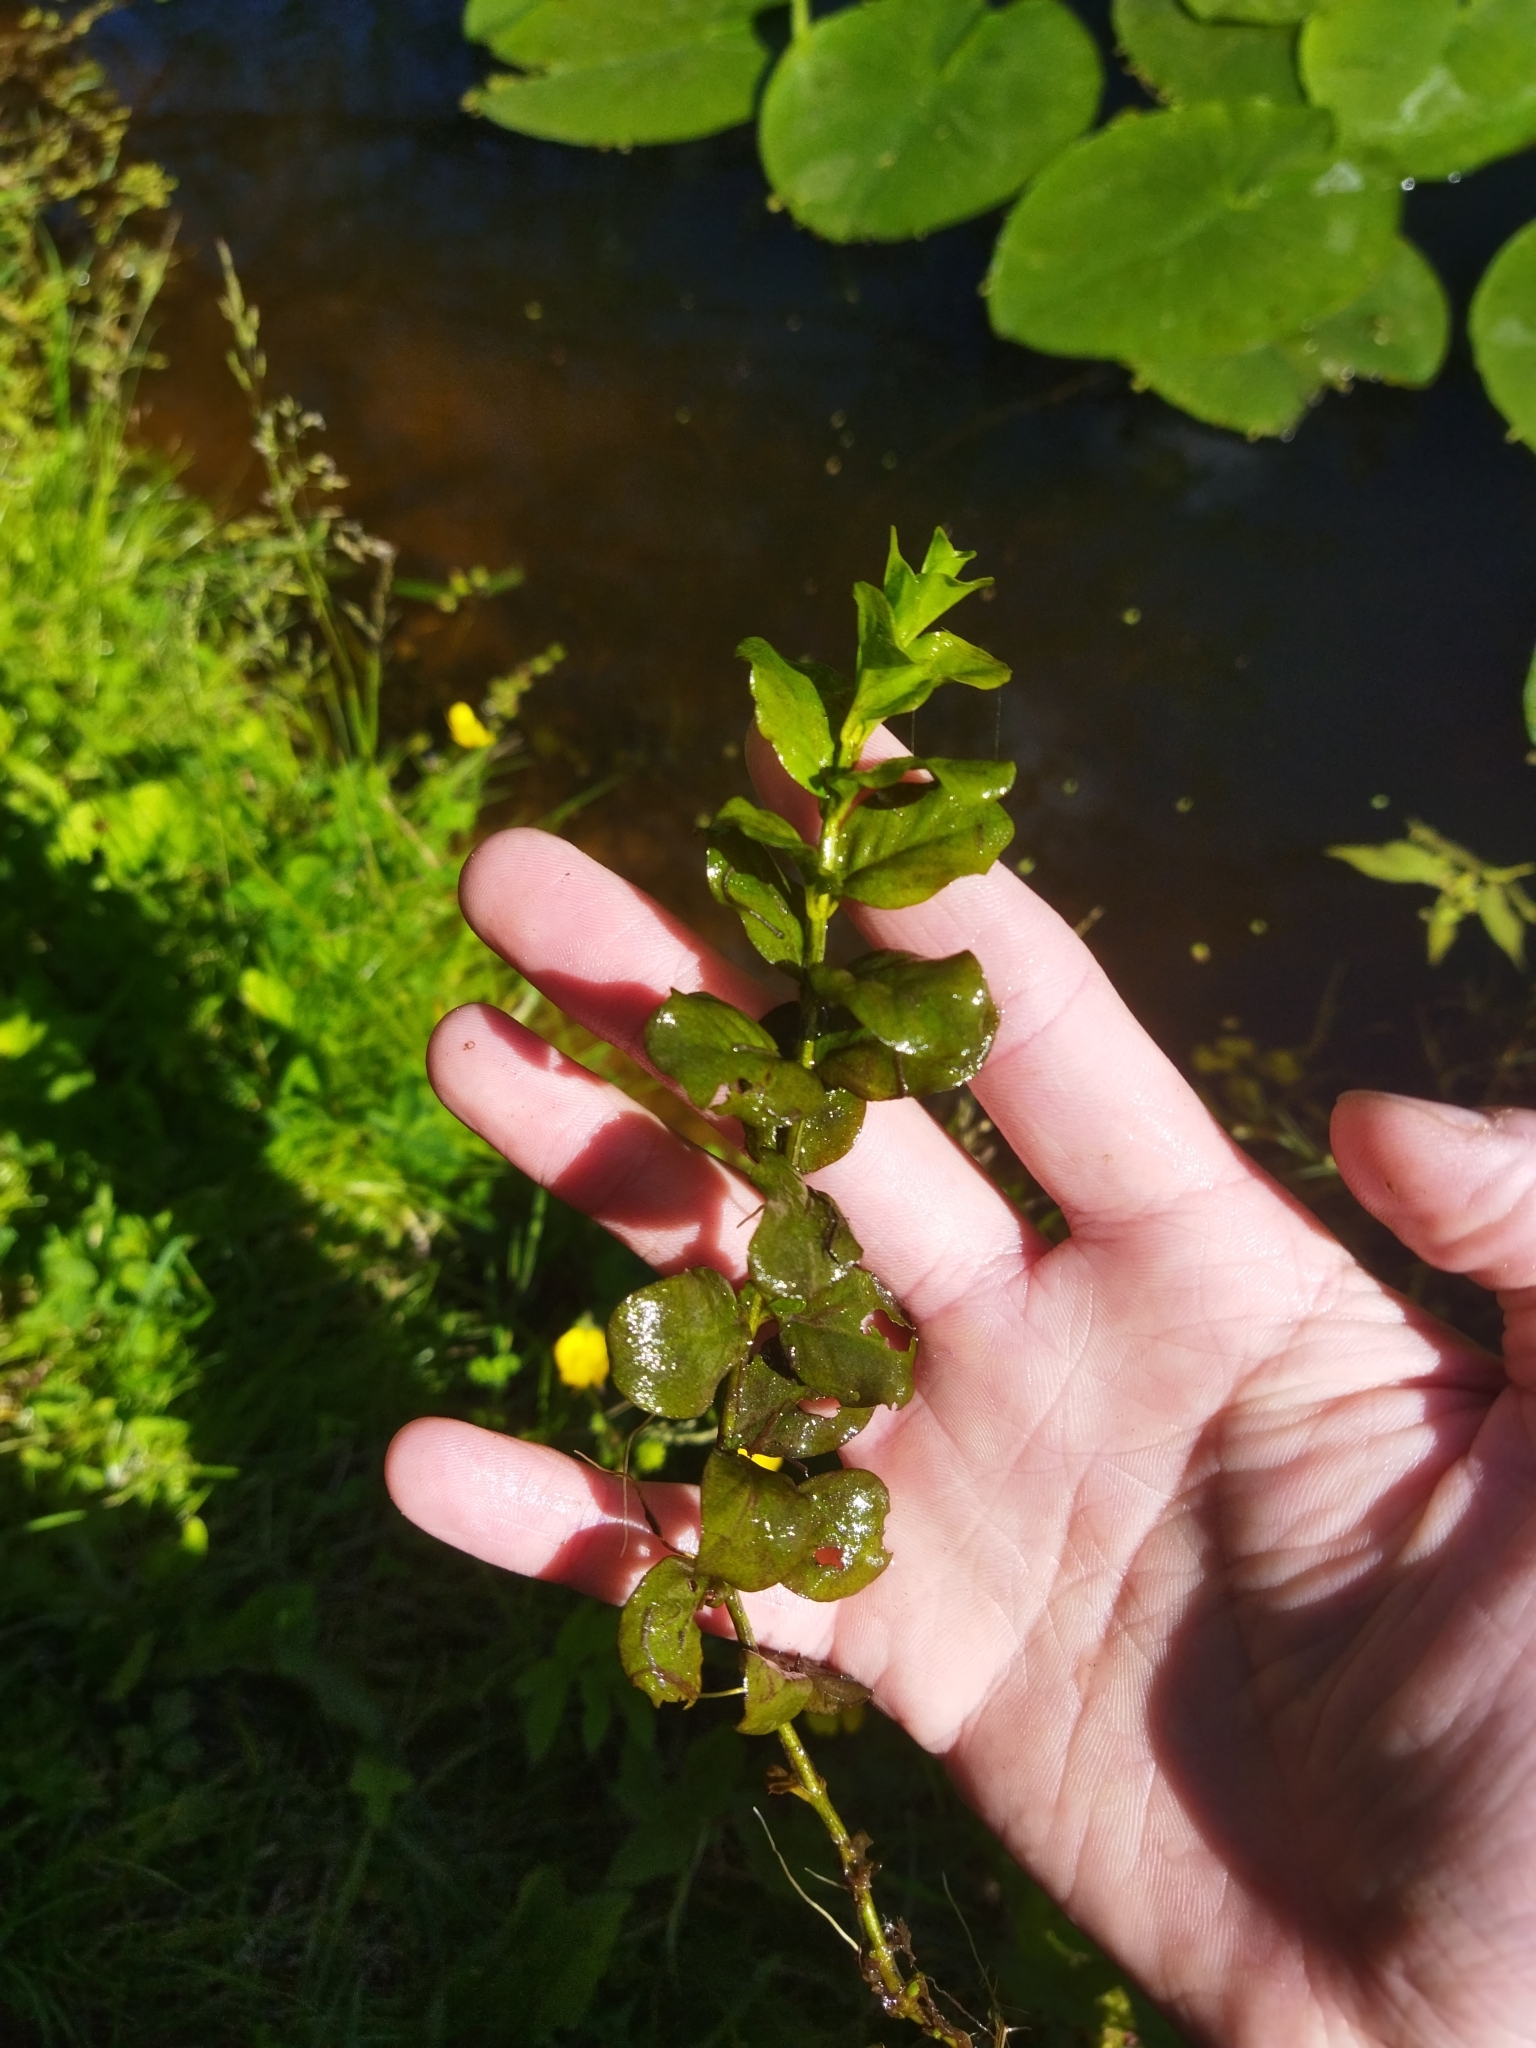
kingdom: Plantae
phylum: Tracheophyta
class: Magnoliopsida
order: Ericales
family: Primulaceae
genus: Lysimachia
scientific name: Lysimachia nummularia
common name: Moneywort
